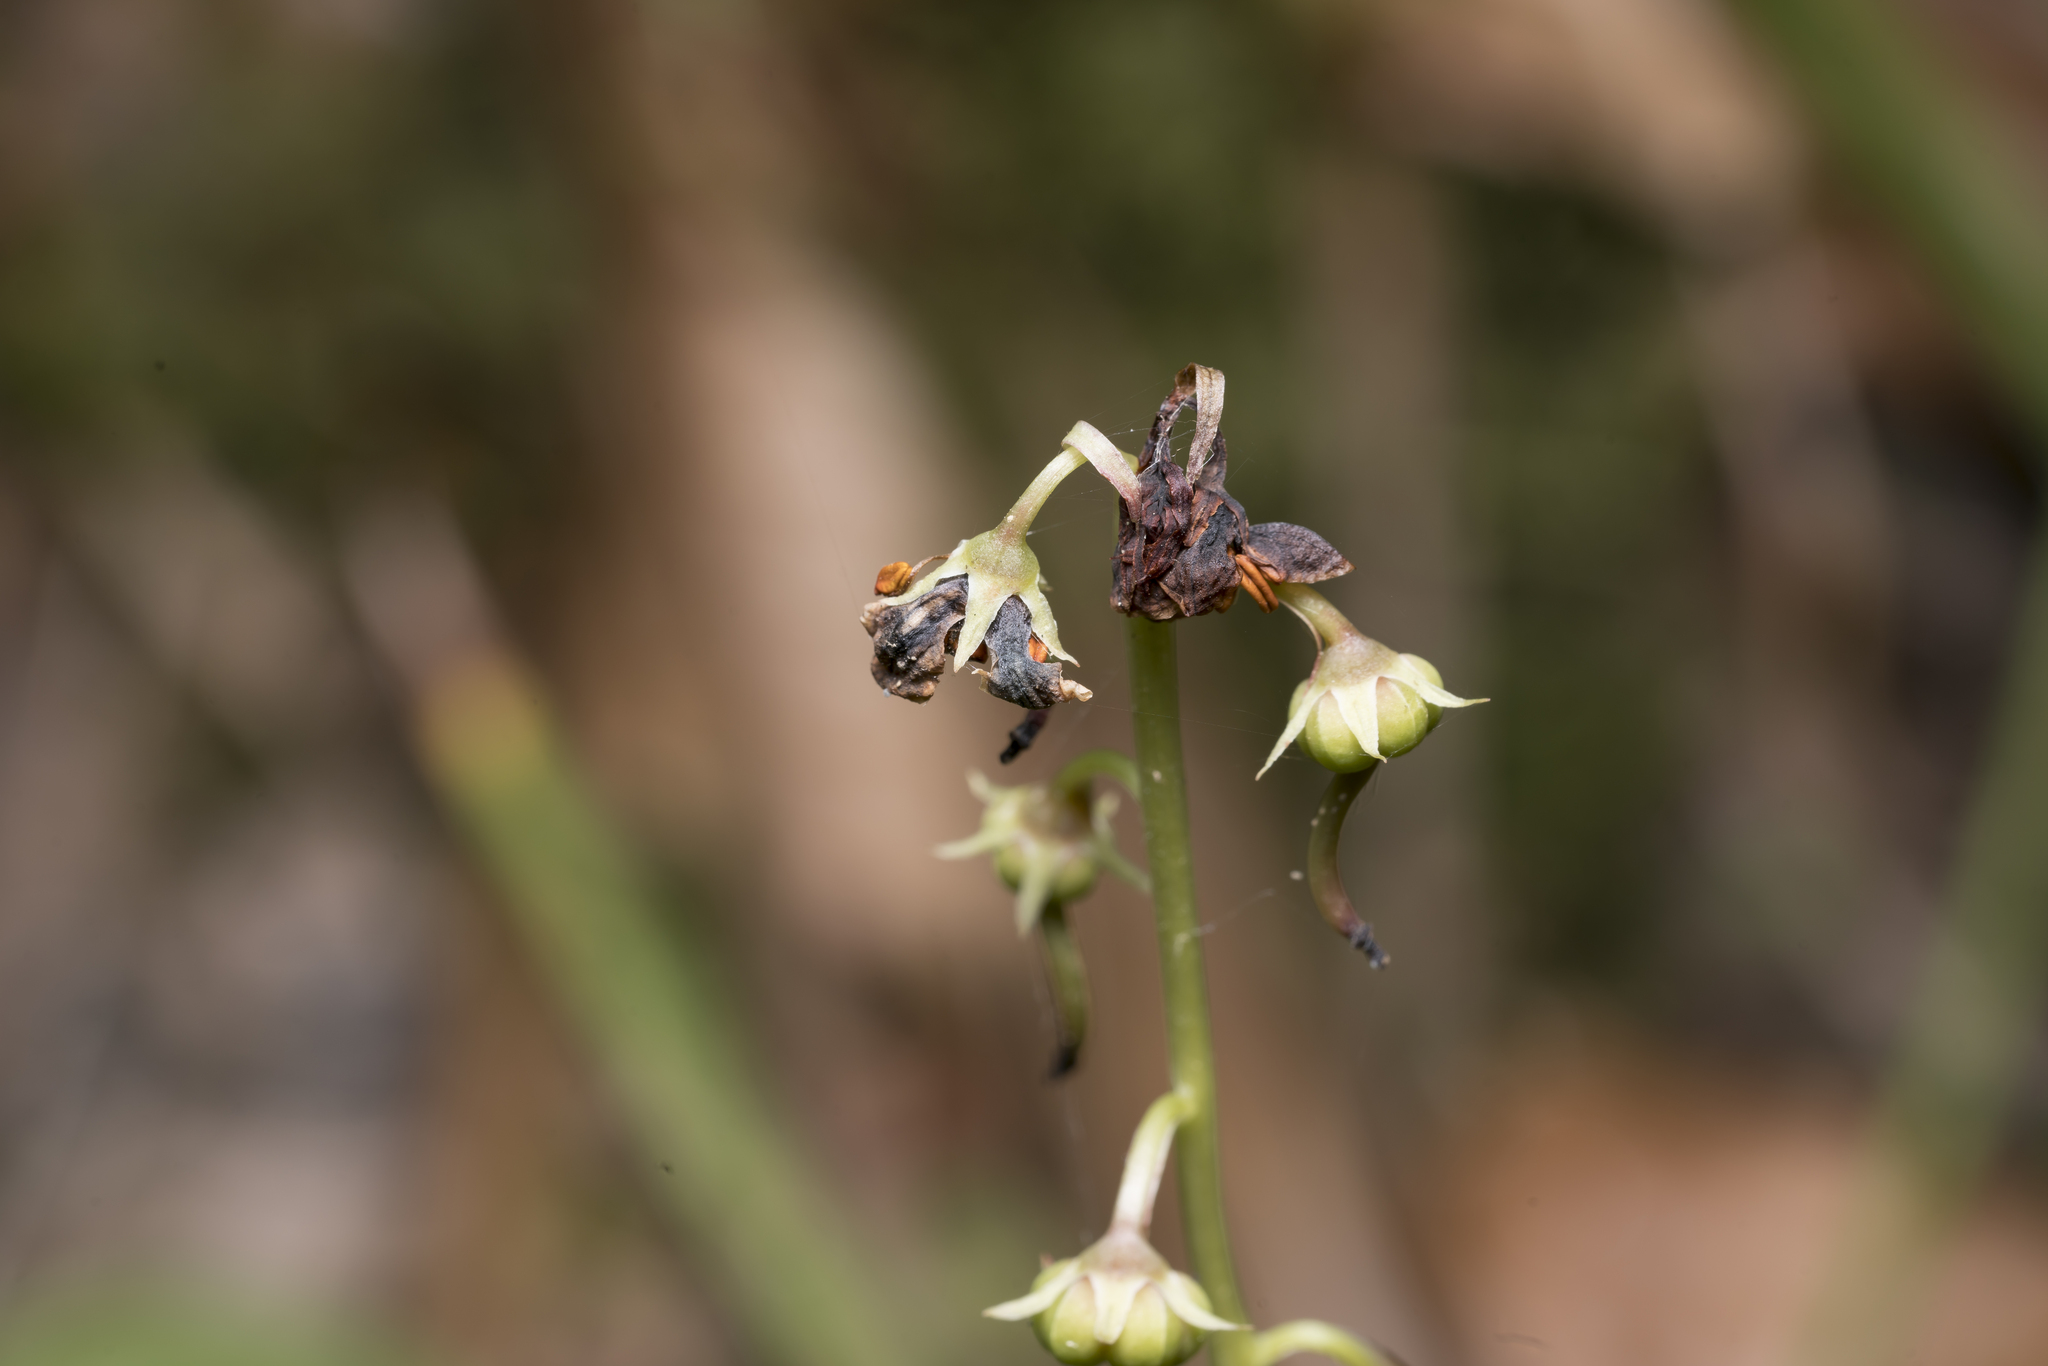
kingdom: Plantae
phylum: Tracheophyta
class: Magnoliopsida
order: Ericales
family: Ericaceae
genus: Pyrola
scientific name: Pyrola rotundifolia
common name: Round-leaved wintergreen
